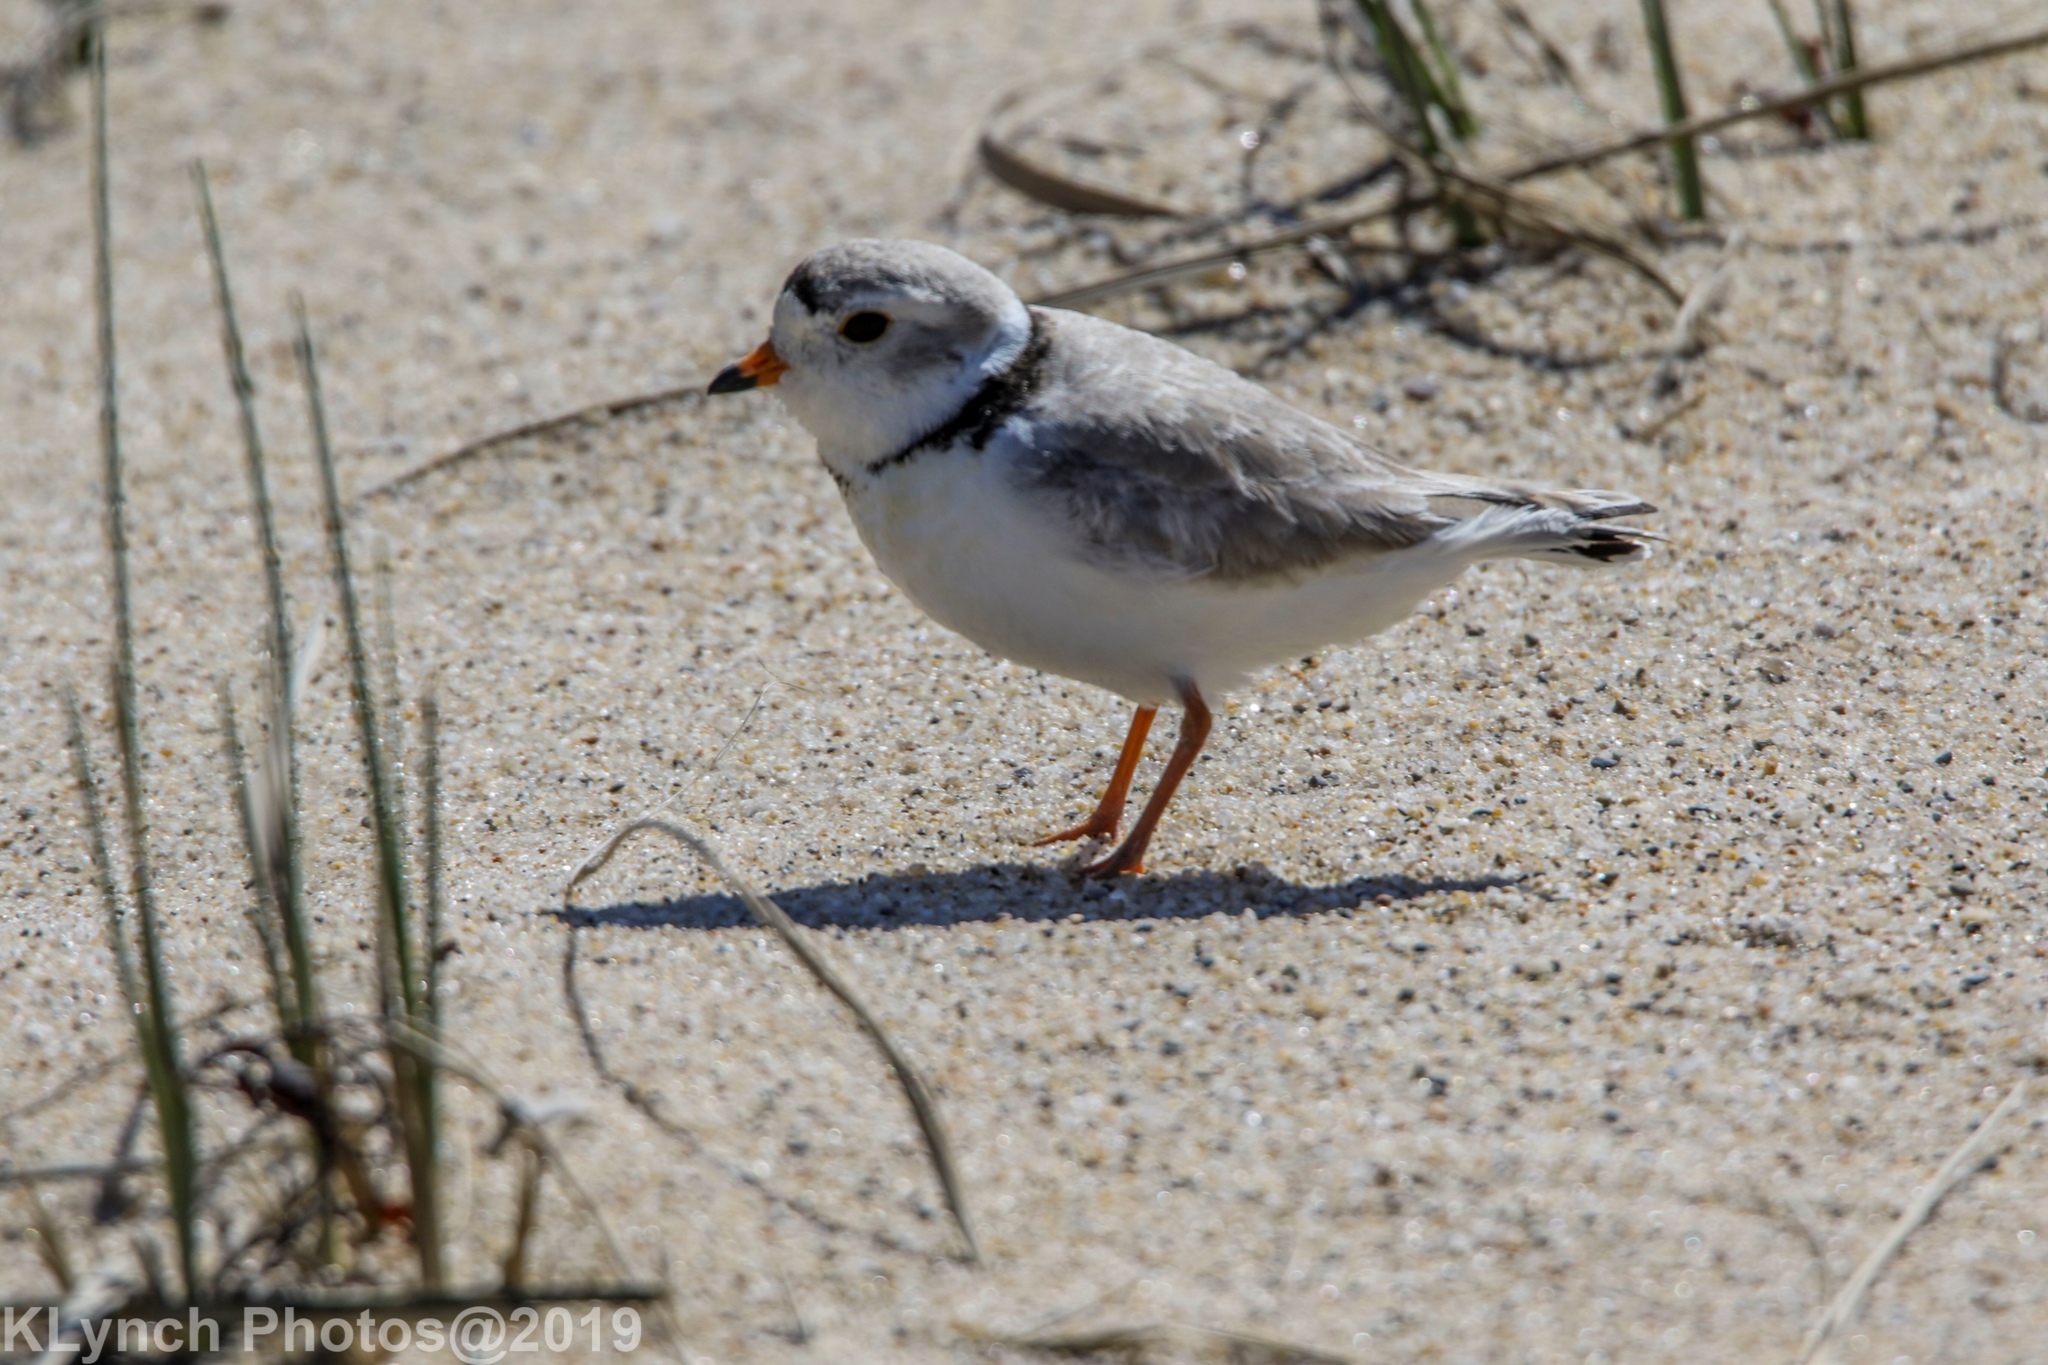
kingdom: Animalia
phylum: Chordata
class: Aves
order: Charadriiformes
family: Charadriidae
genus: Charadrius
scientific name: Charadrius melodus
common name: Piping plover
